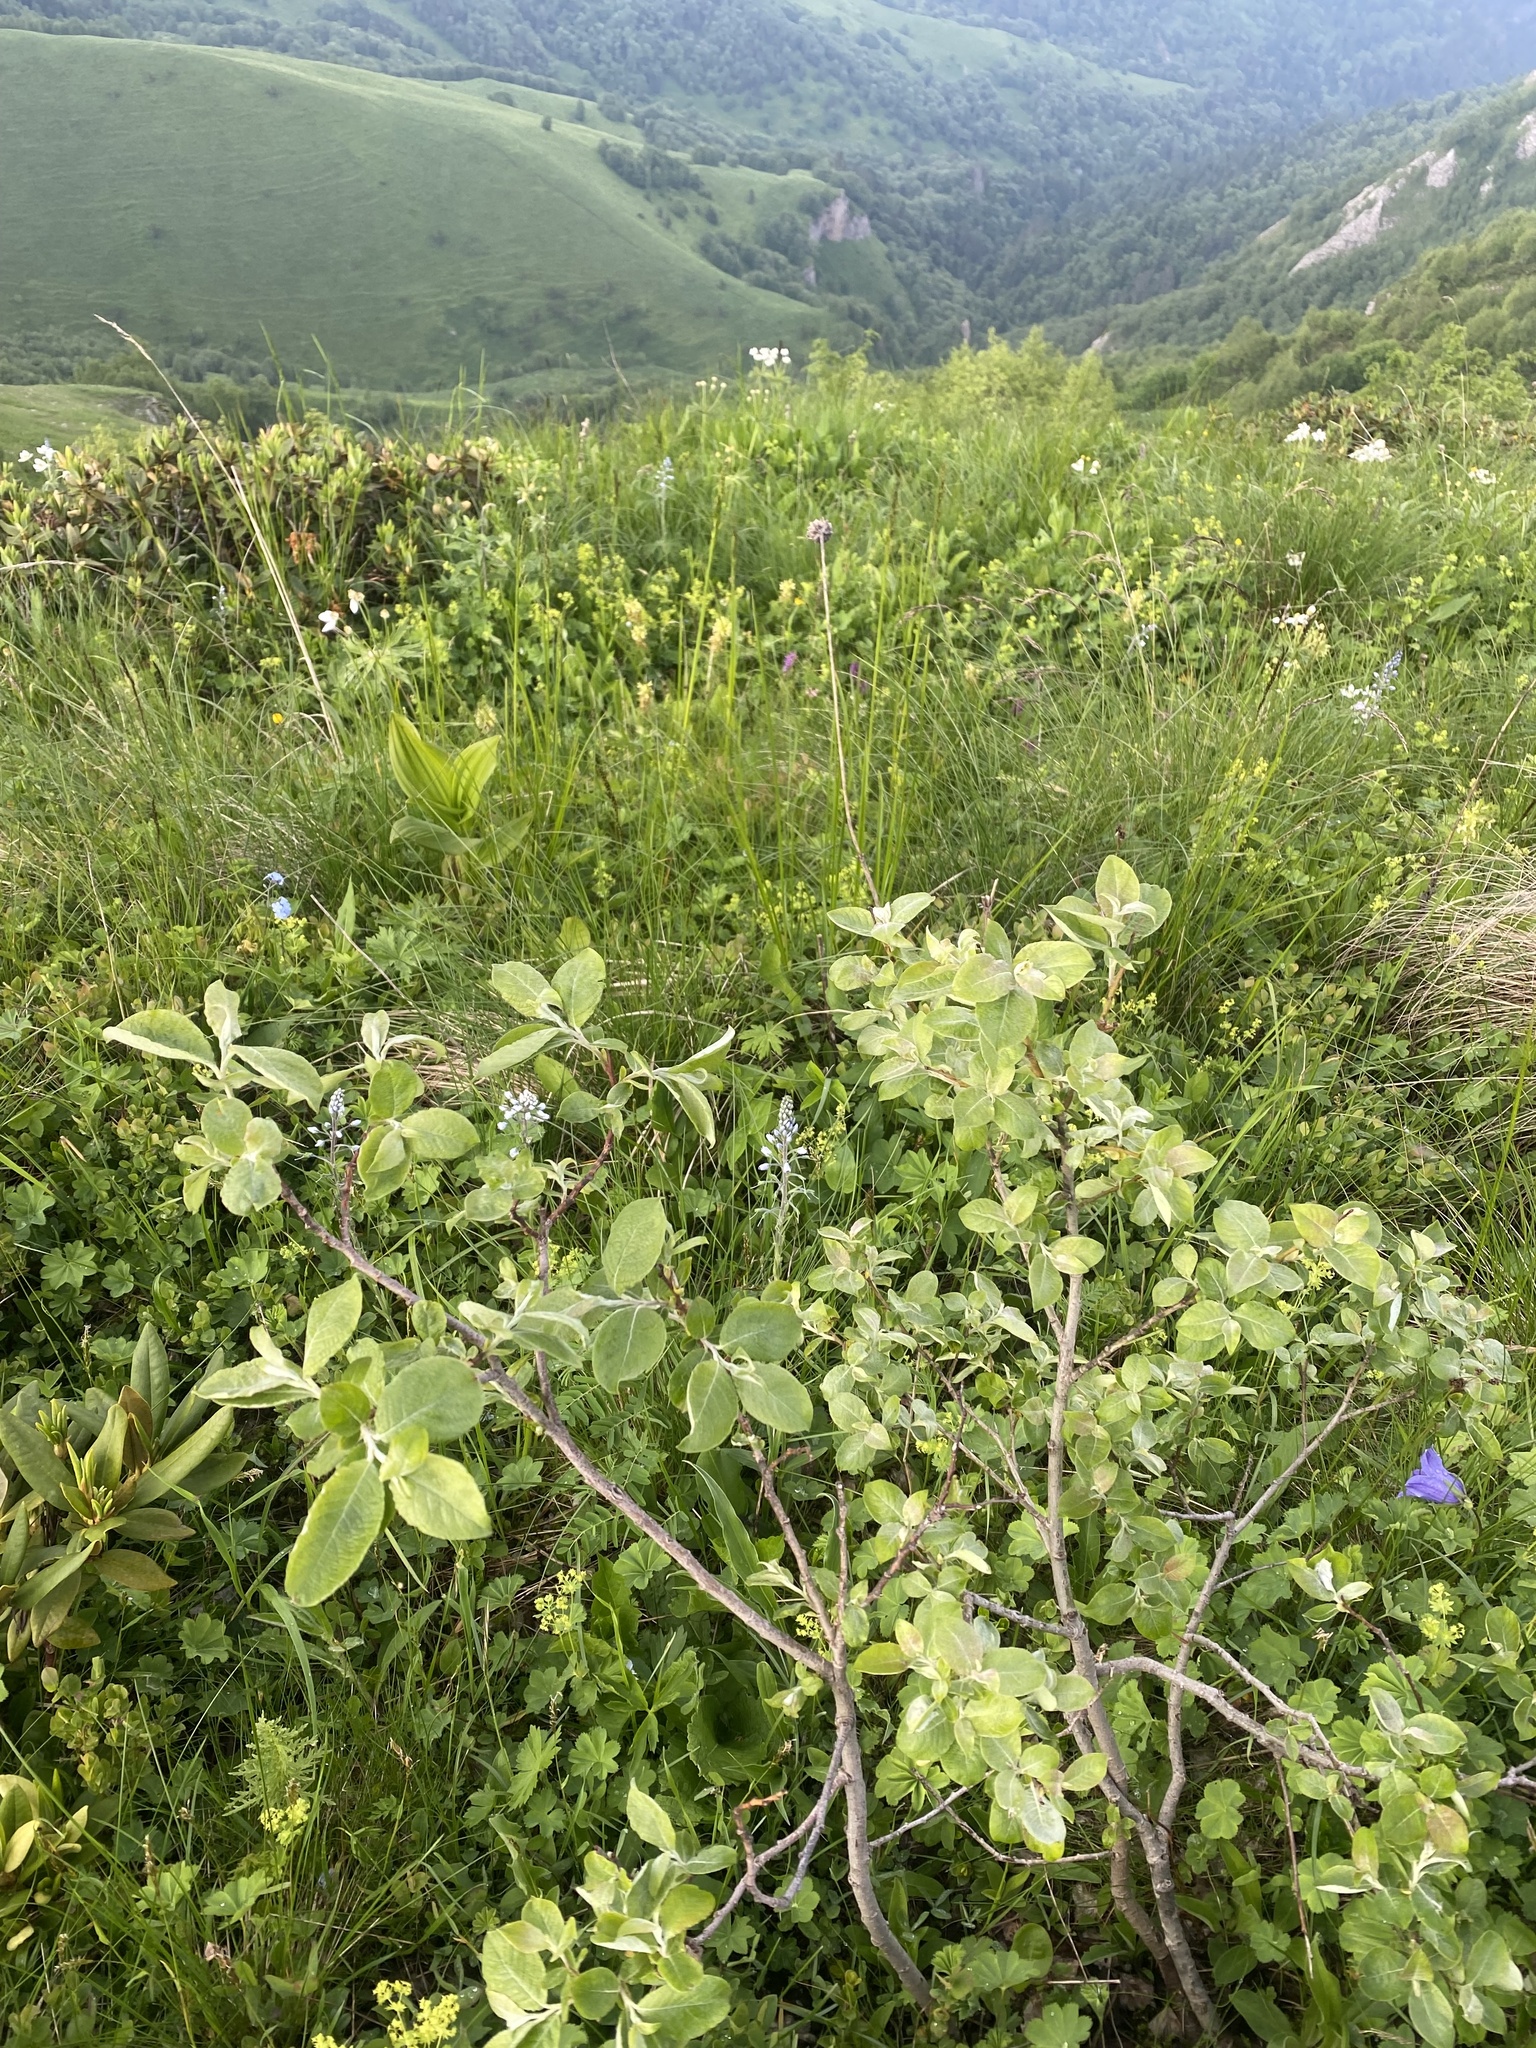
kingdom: Plantae
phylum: Tracheophyta
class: Magnoliopsida
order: Malpighiales
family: Salicaceae
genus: Salix
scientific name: Salix caprea
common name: Goat willow
